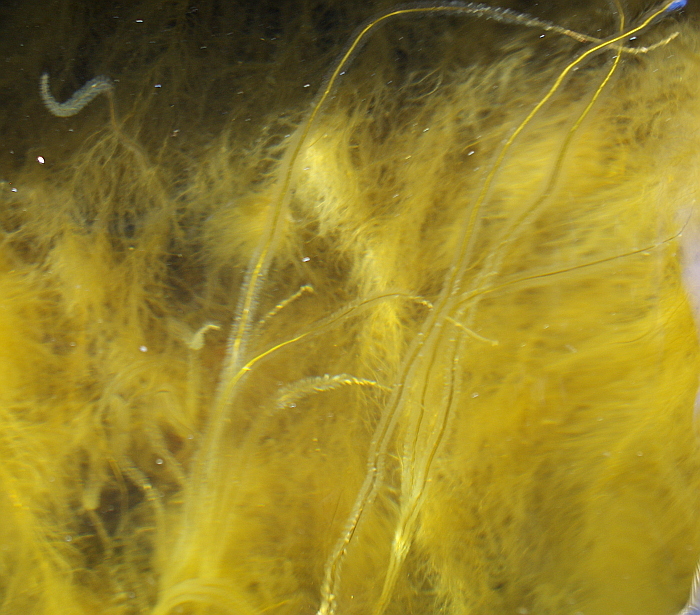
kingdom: Chromista
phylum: Ochrophyta
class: Phaeophyceae
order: Tilopteridales
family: Halosiphonaceae
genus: Halosiphon
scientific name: Halosiphon tomentosus
